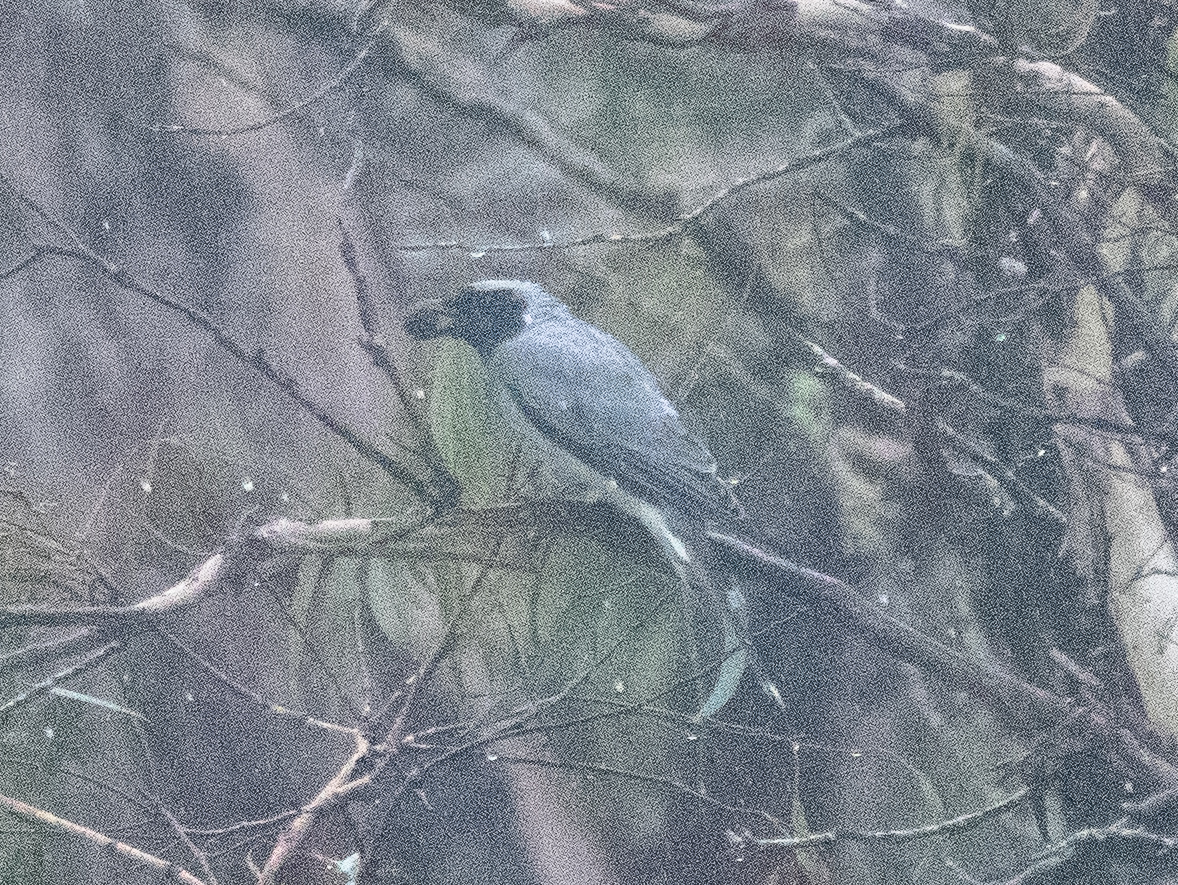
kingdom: Animalia
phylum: Chordata
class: Aves
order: Passeriformes
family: Campephagidae
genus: Coracina
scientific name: Coracina novaehollandiae
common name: Black-faced cuckooshrike
